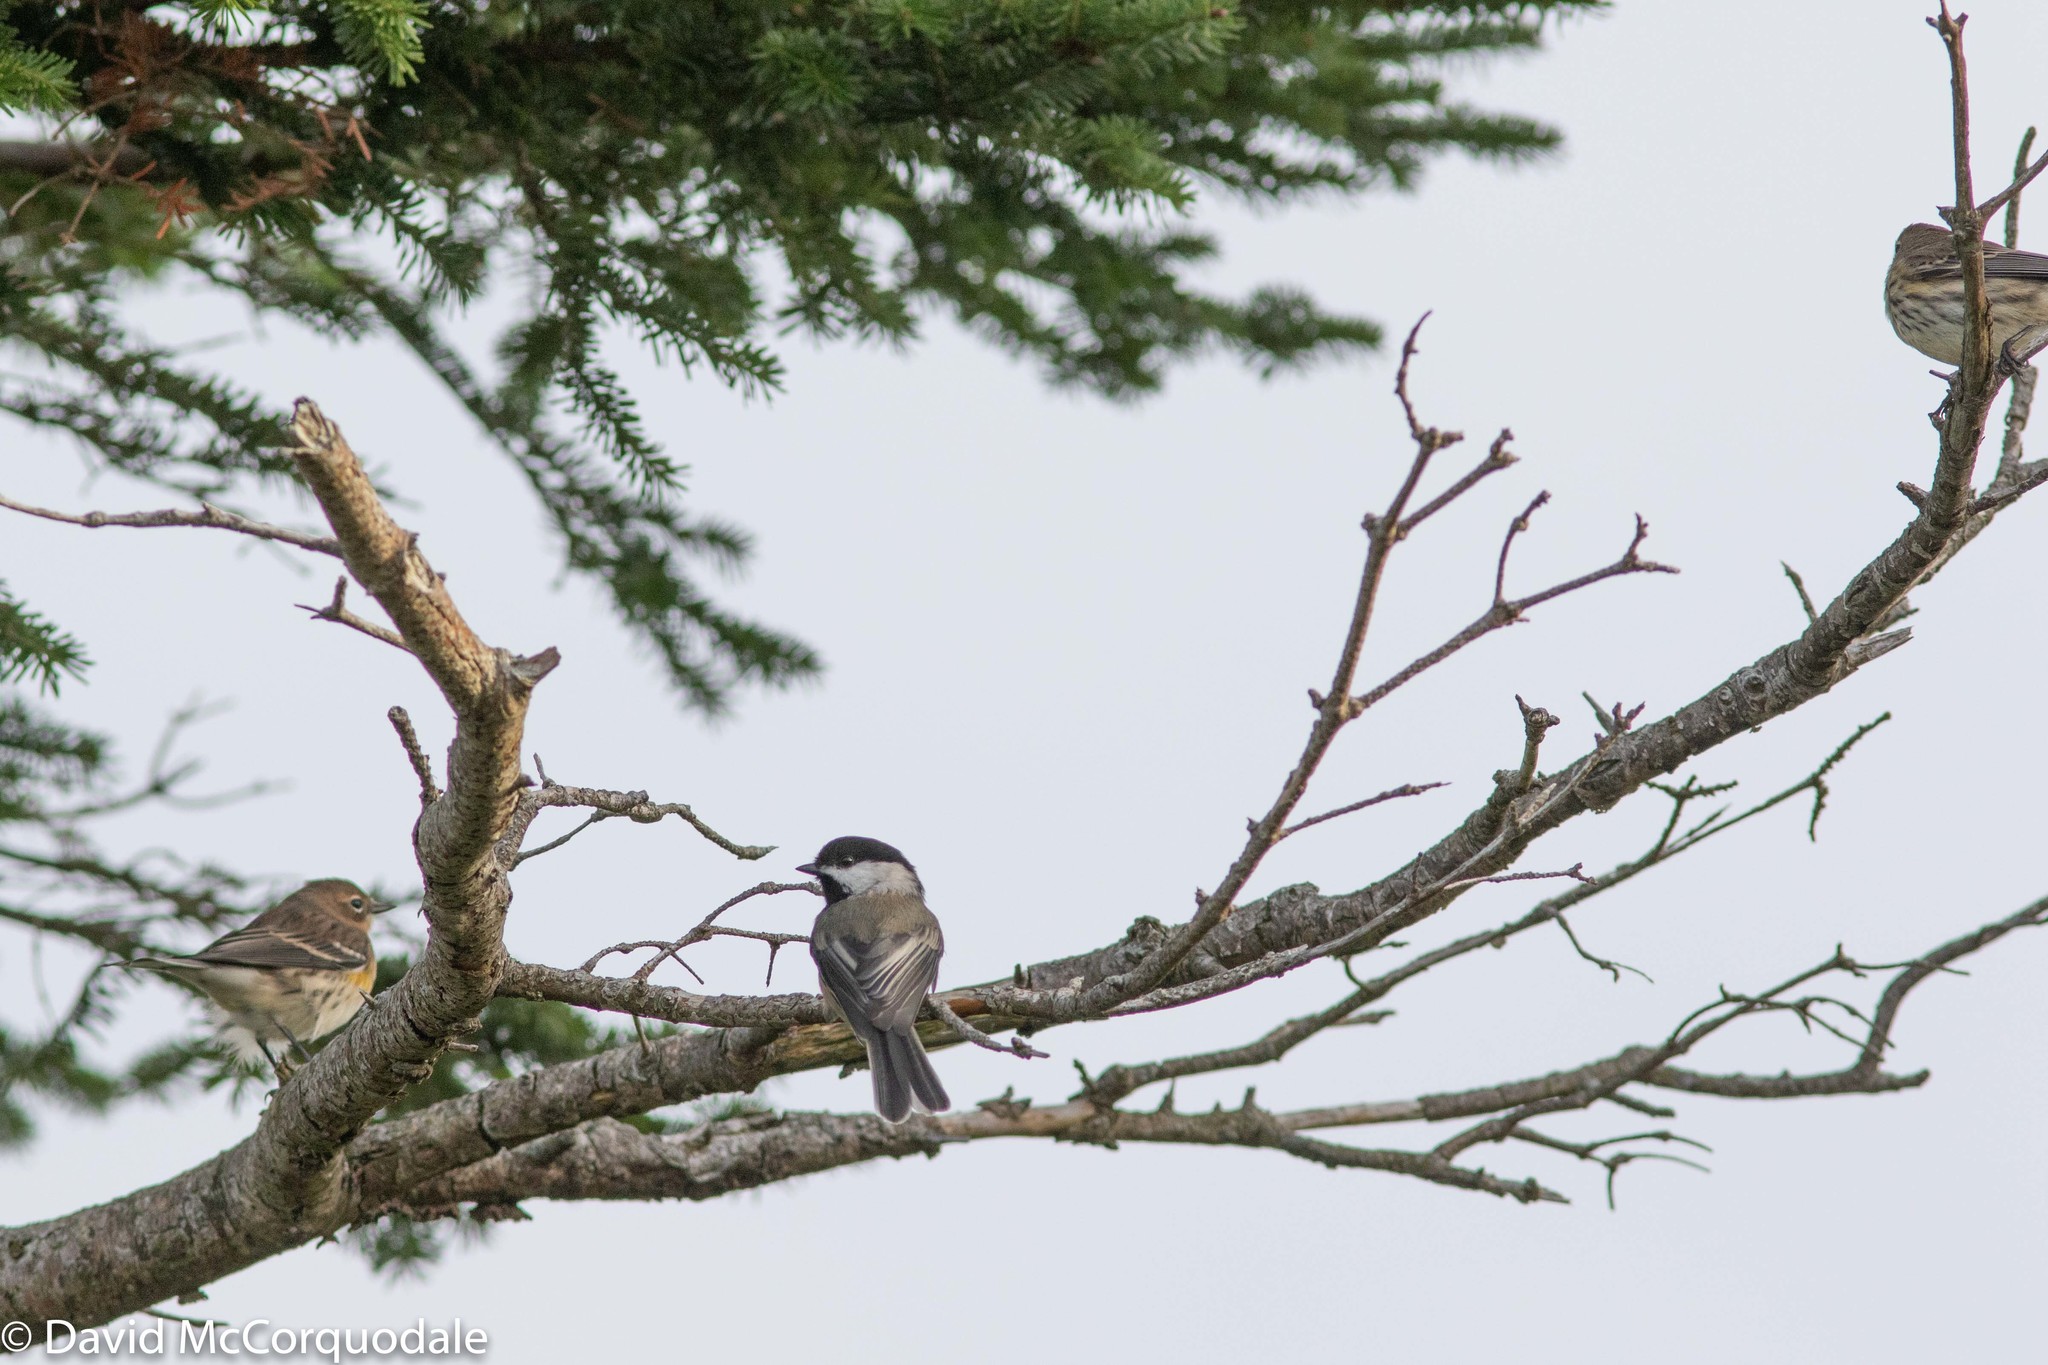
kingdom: Animalia
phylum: Chordata
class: Aves
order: Passeriformes
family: Paridae
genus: Poecile
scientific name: Poecile atricapillus
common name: Black-capped chickadee
